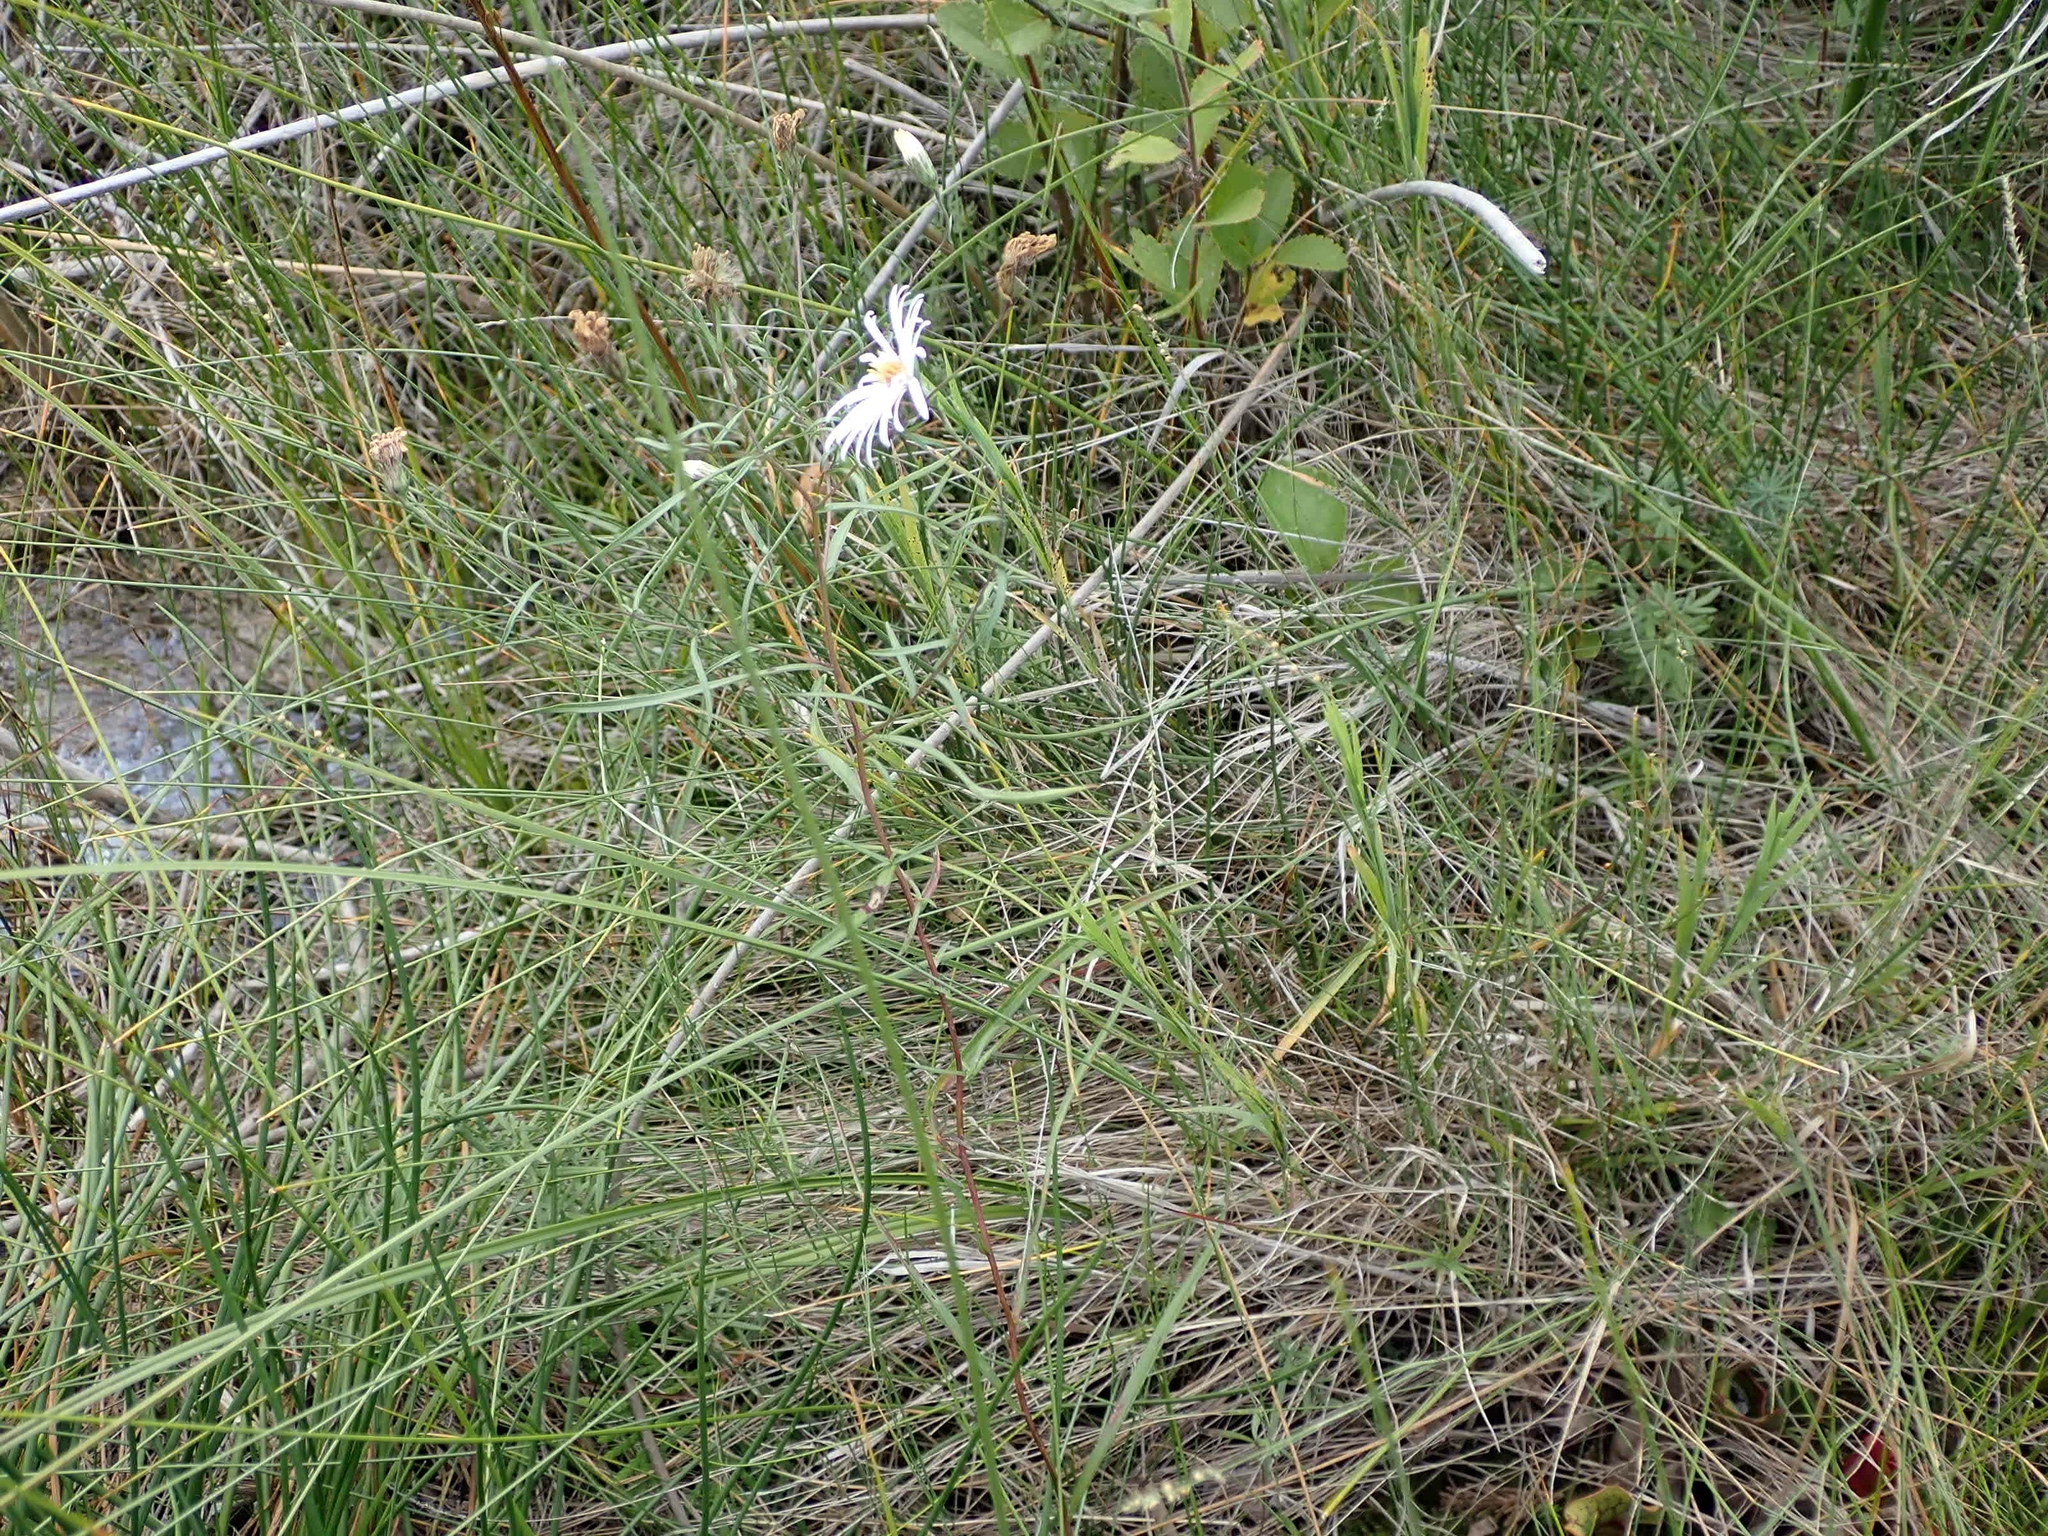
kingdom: Plantae
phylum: Tracheophyta
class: Magnoliopsida
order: Asterales
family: Asteraceae
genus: Symphyotrichum
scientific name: Symphyotrichum boreale
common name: Northern bog aster
